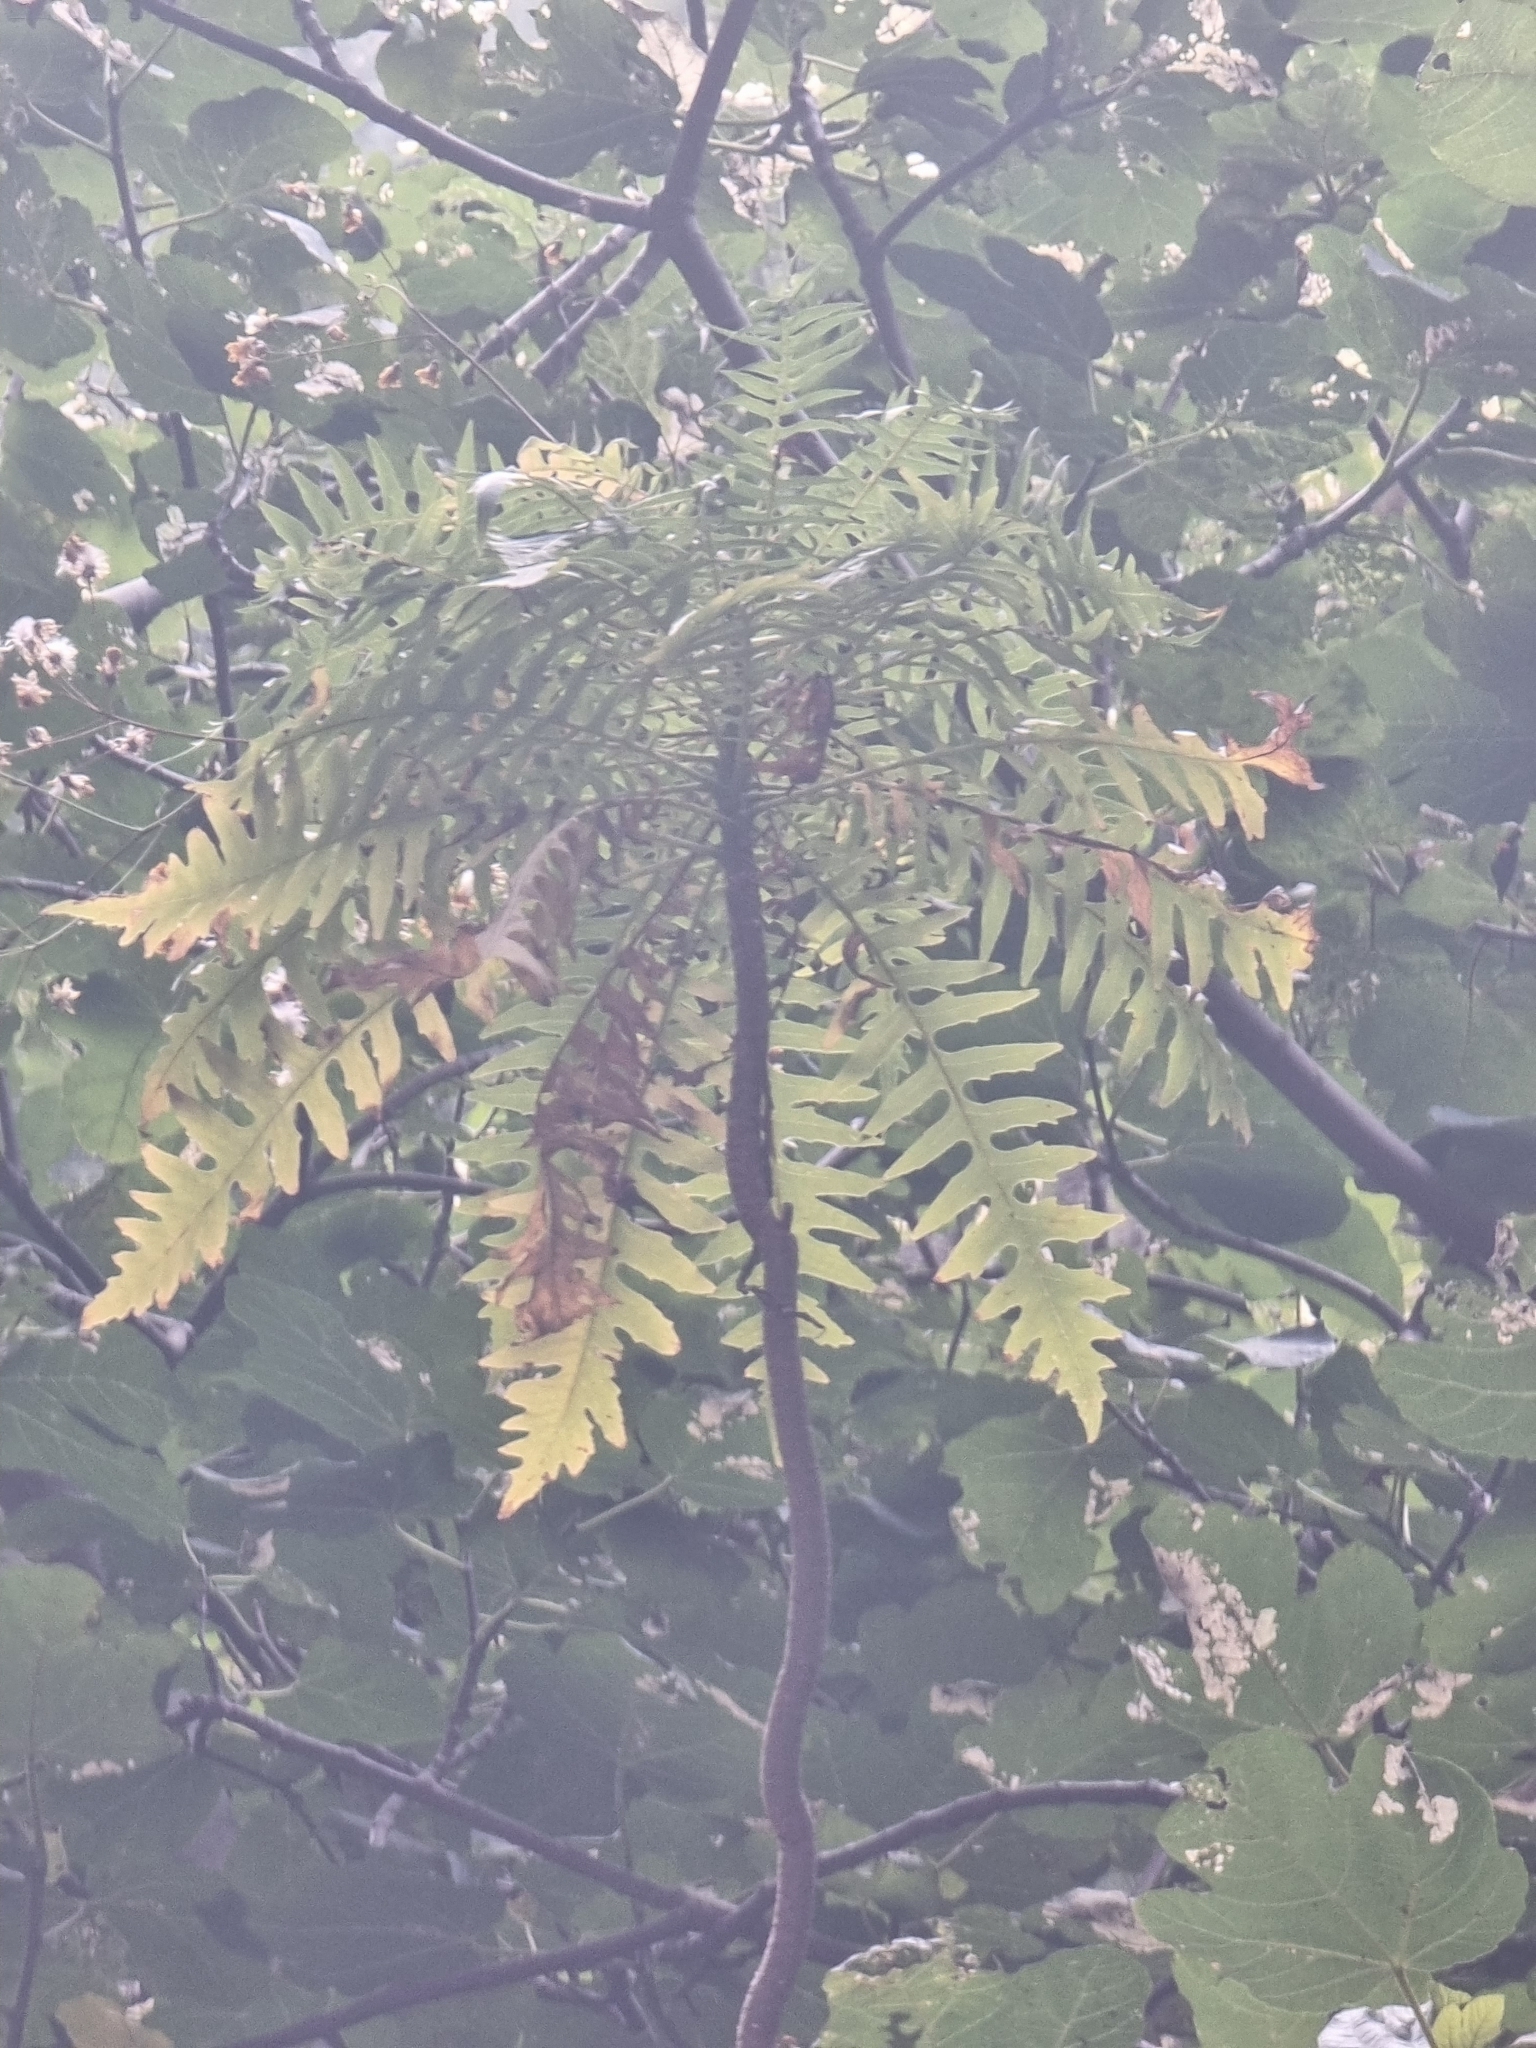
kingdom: Plantae
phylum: Tracheophyta
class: Magnoliopsida
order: Asterales
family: Asteraceae
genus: Sonchus
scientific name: Sonchus pinnatus
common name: Wing-leaved sow-thistle
